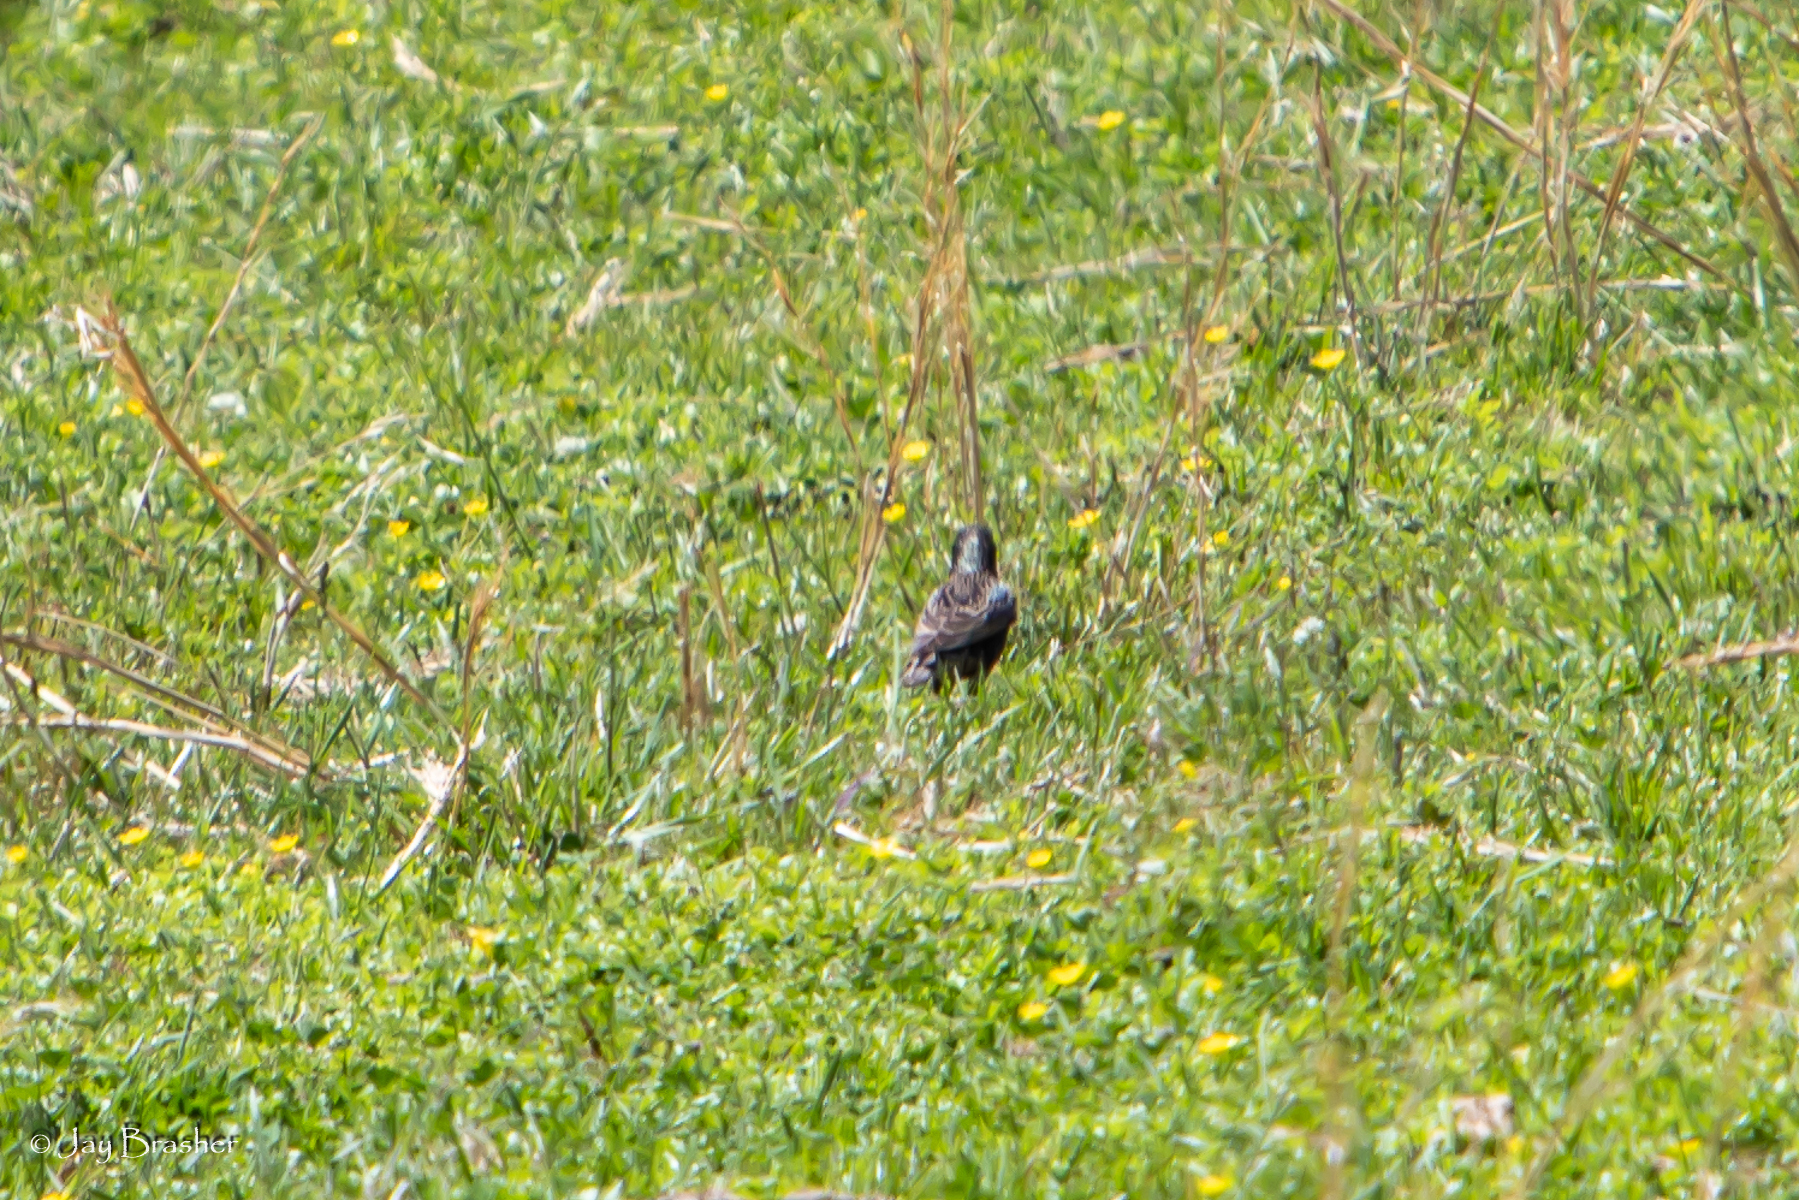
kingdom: Animalia
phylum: Chordata
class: Aves
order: Passeriformes
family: Sturnidae
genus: Sturnus
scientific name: Sturnus vulgaris
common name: Common starling
